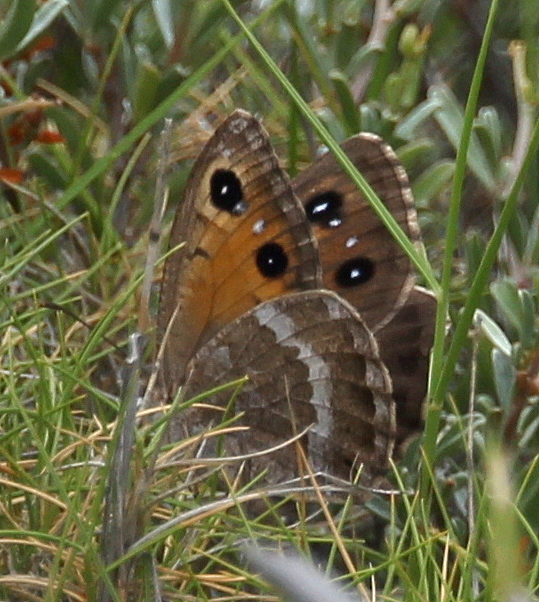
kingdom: Animalia
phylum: Arthropoda
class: Insecta
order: Lepidoptera
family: Nymphalidae
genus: Satyrus
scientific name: Satyrus ferula
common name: Great sooty satyr
